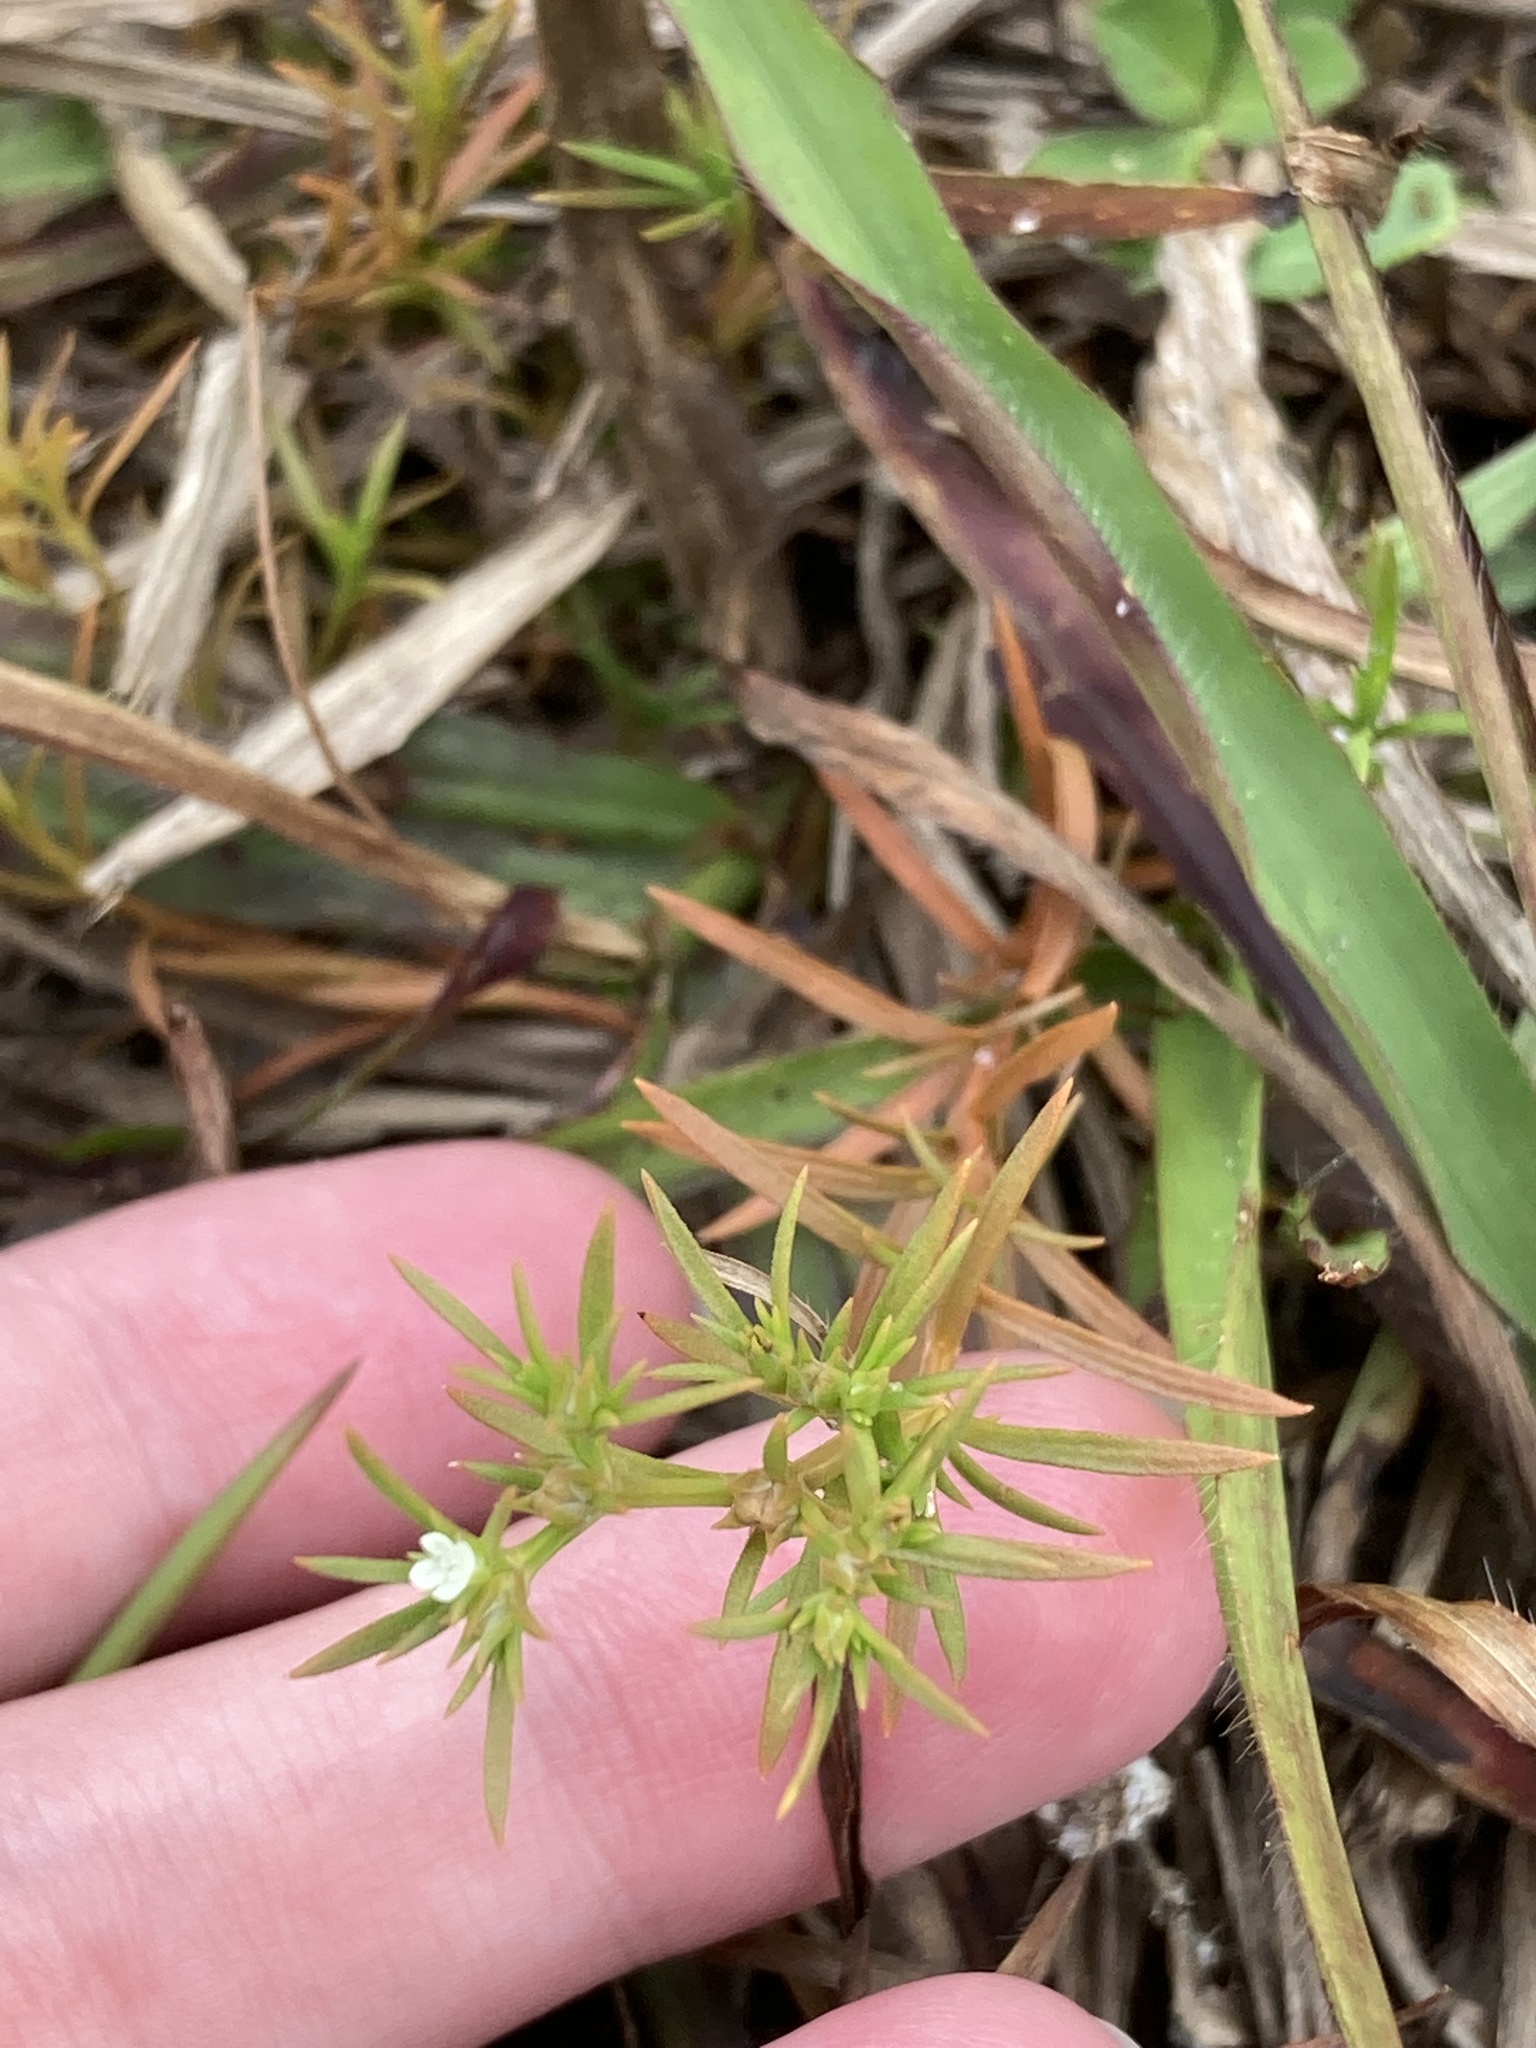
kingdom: Plantae
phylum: Tracheophyta
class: Magnoliopsida
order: Lamiales
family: Tetrachondraceae
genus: Polypremum
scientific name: Polypremum procumbens
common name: Juniper-leaf
